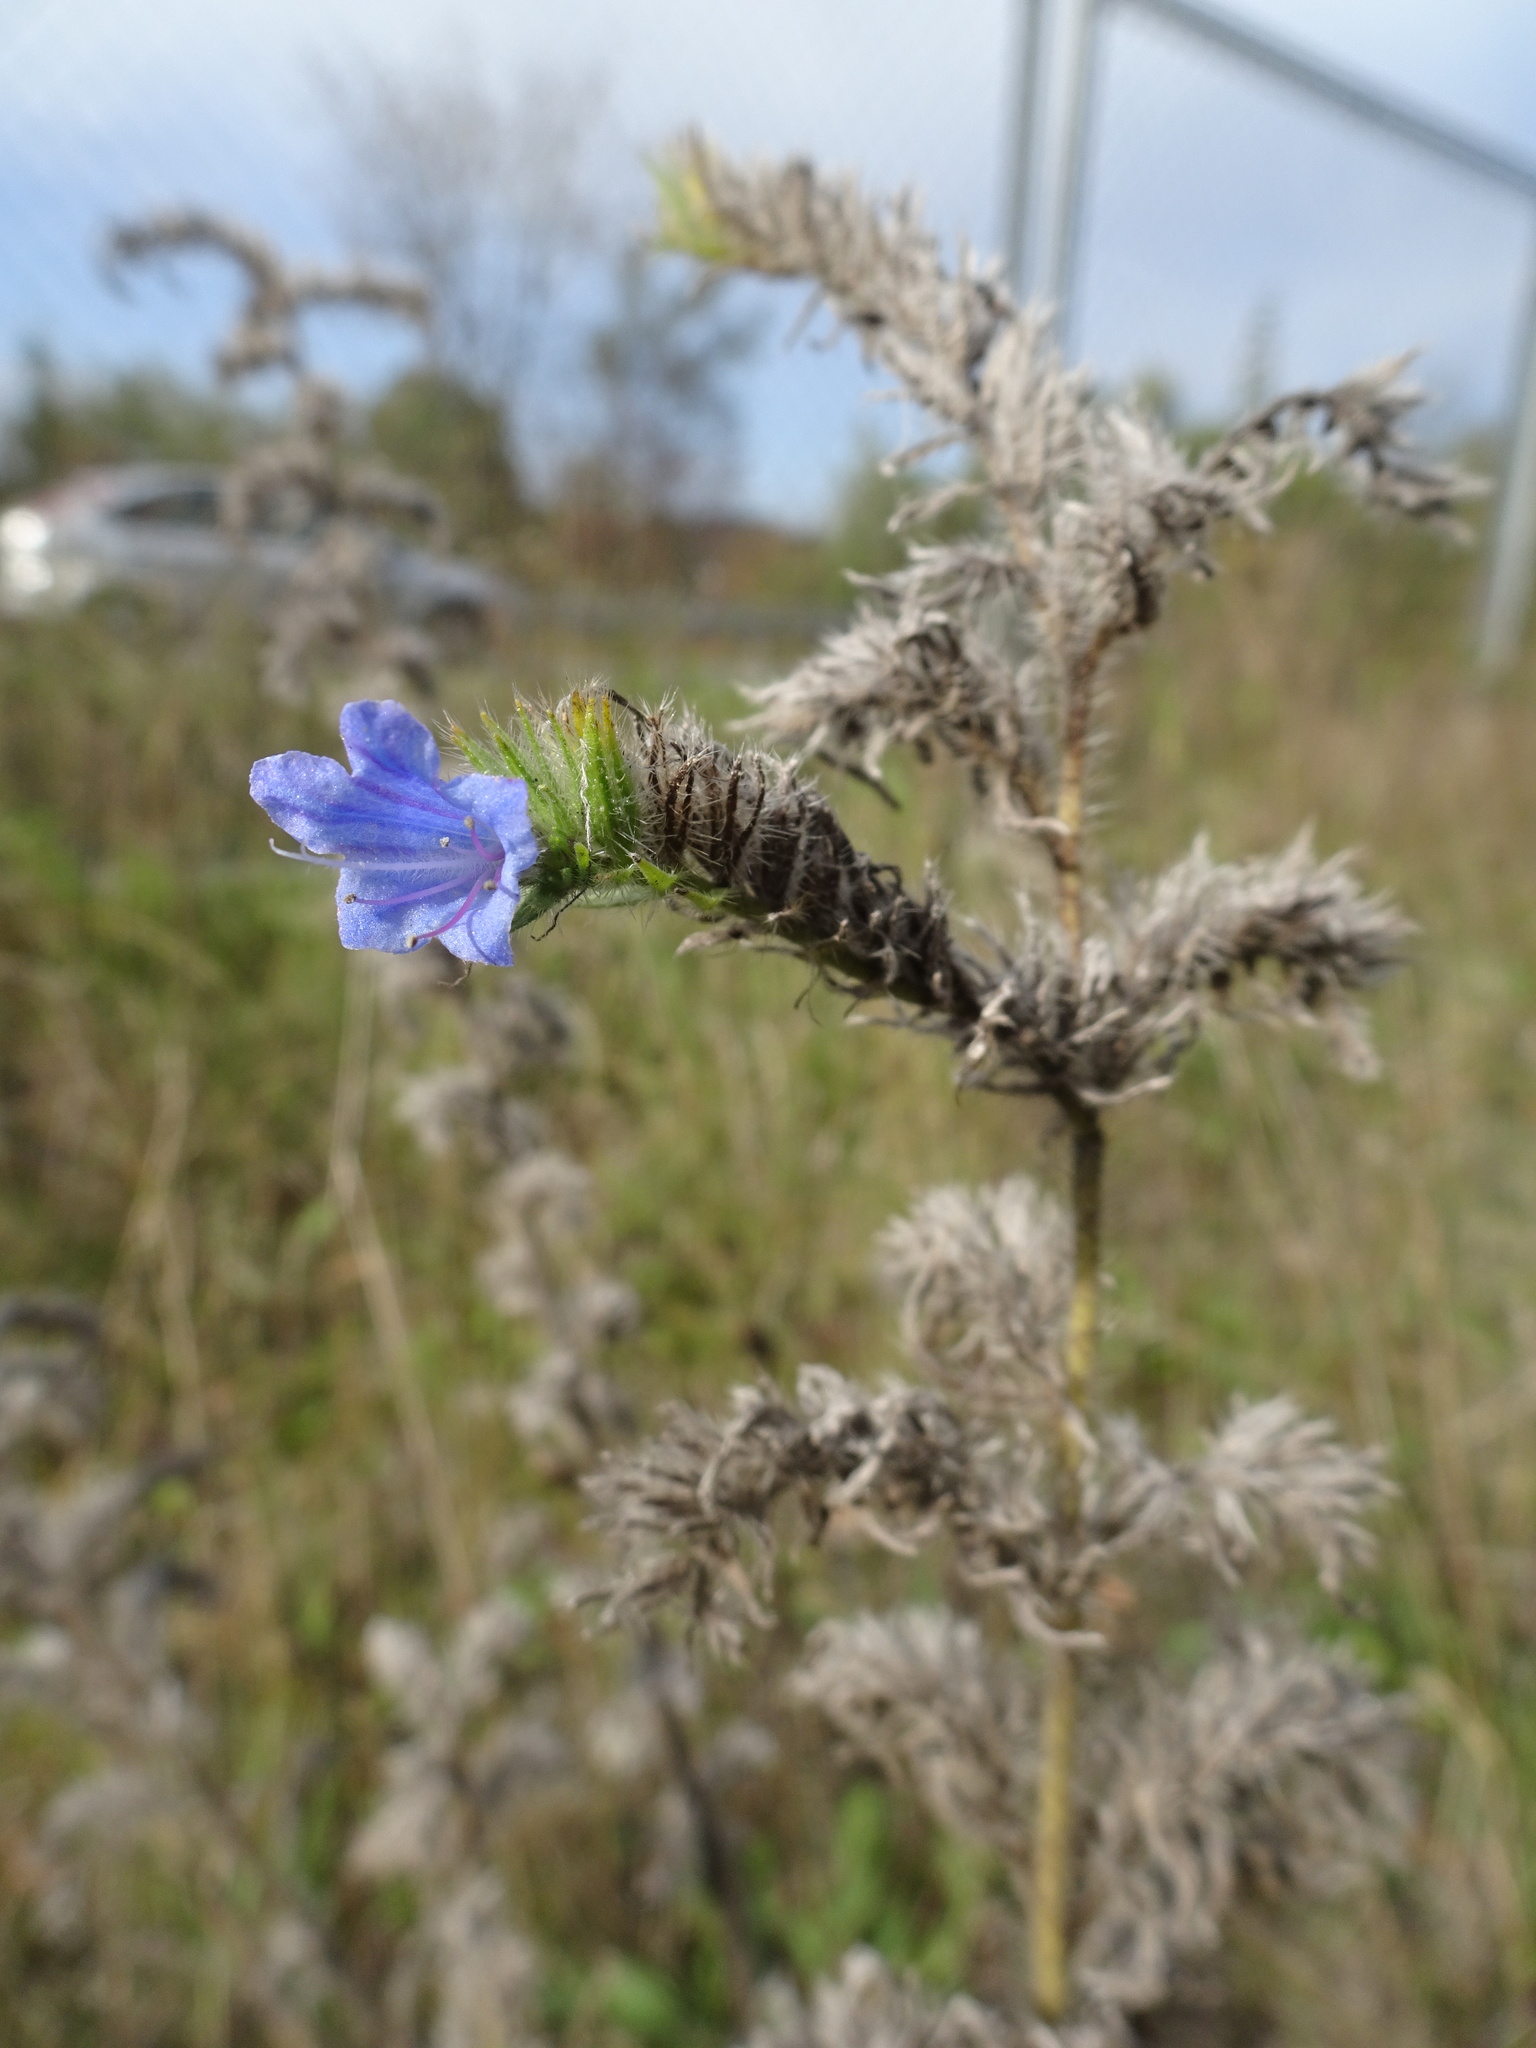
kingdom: Plantae
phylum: Tracheophyta
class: Magnoliopsida
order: Boraginales
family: Boraginaceae
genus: Echium
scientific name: Echium vulgare
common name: Common viper's bugloss
